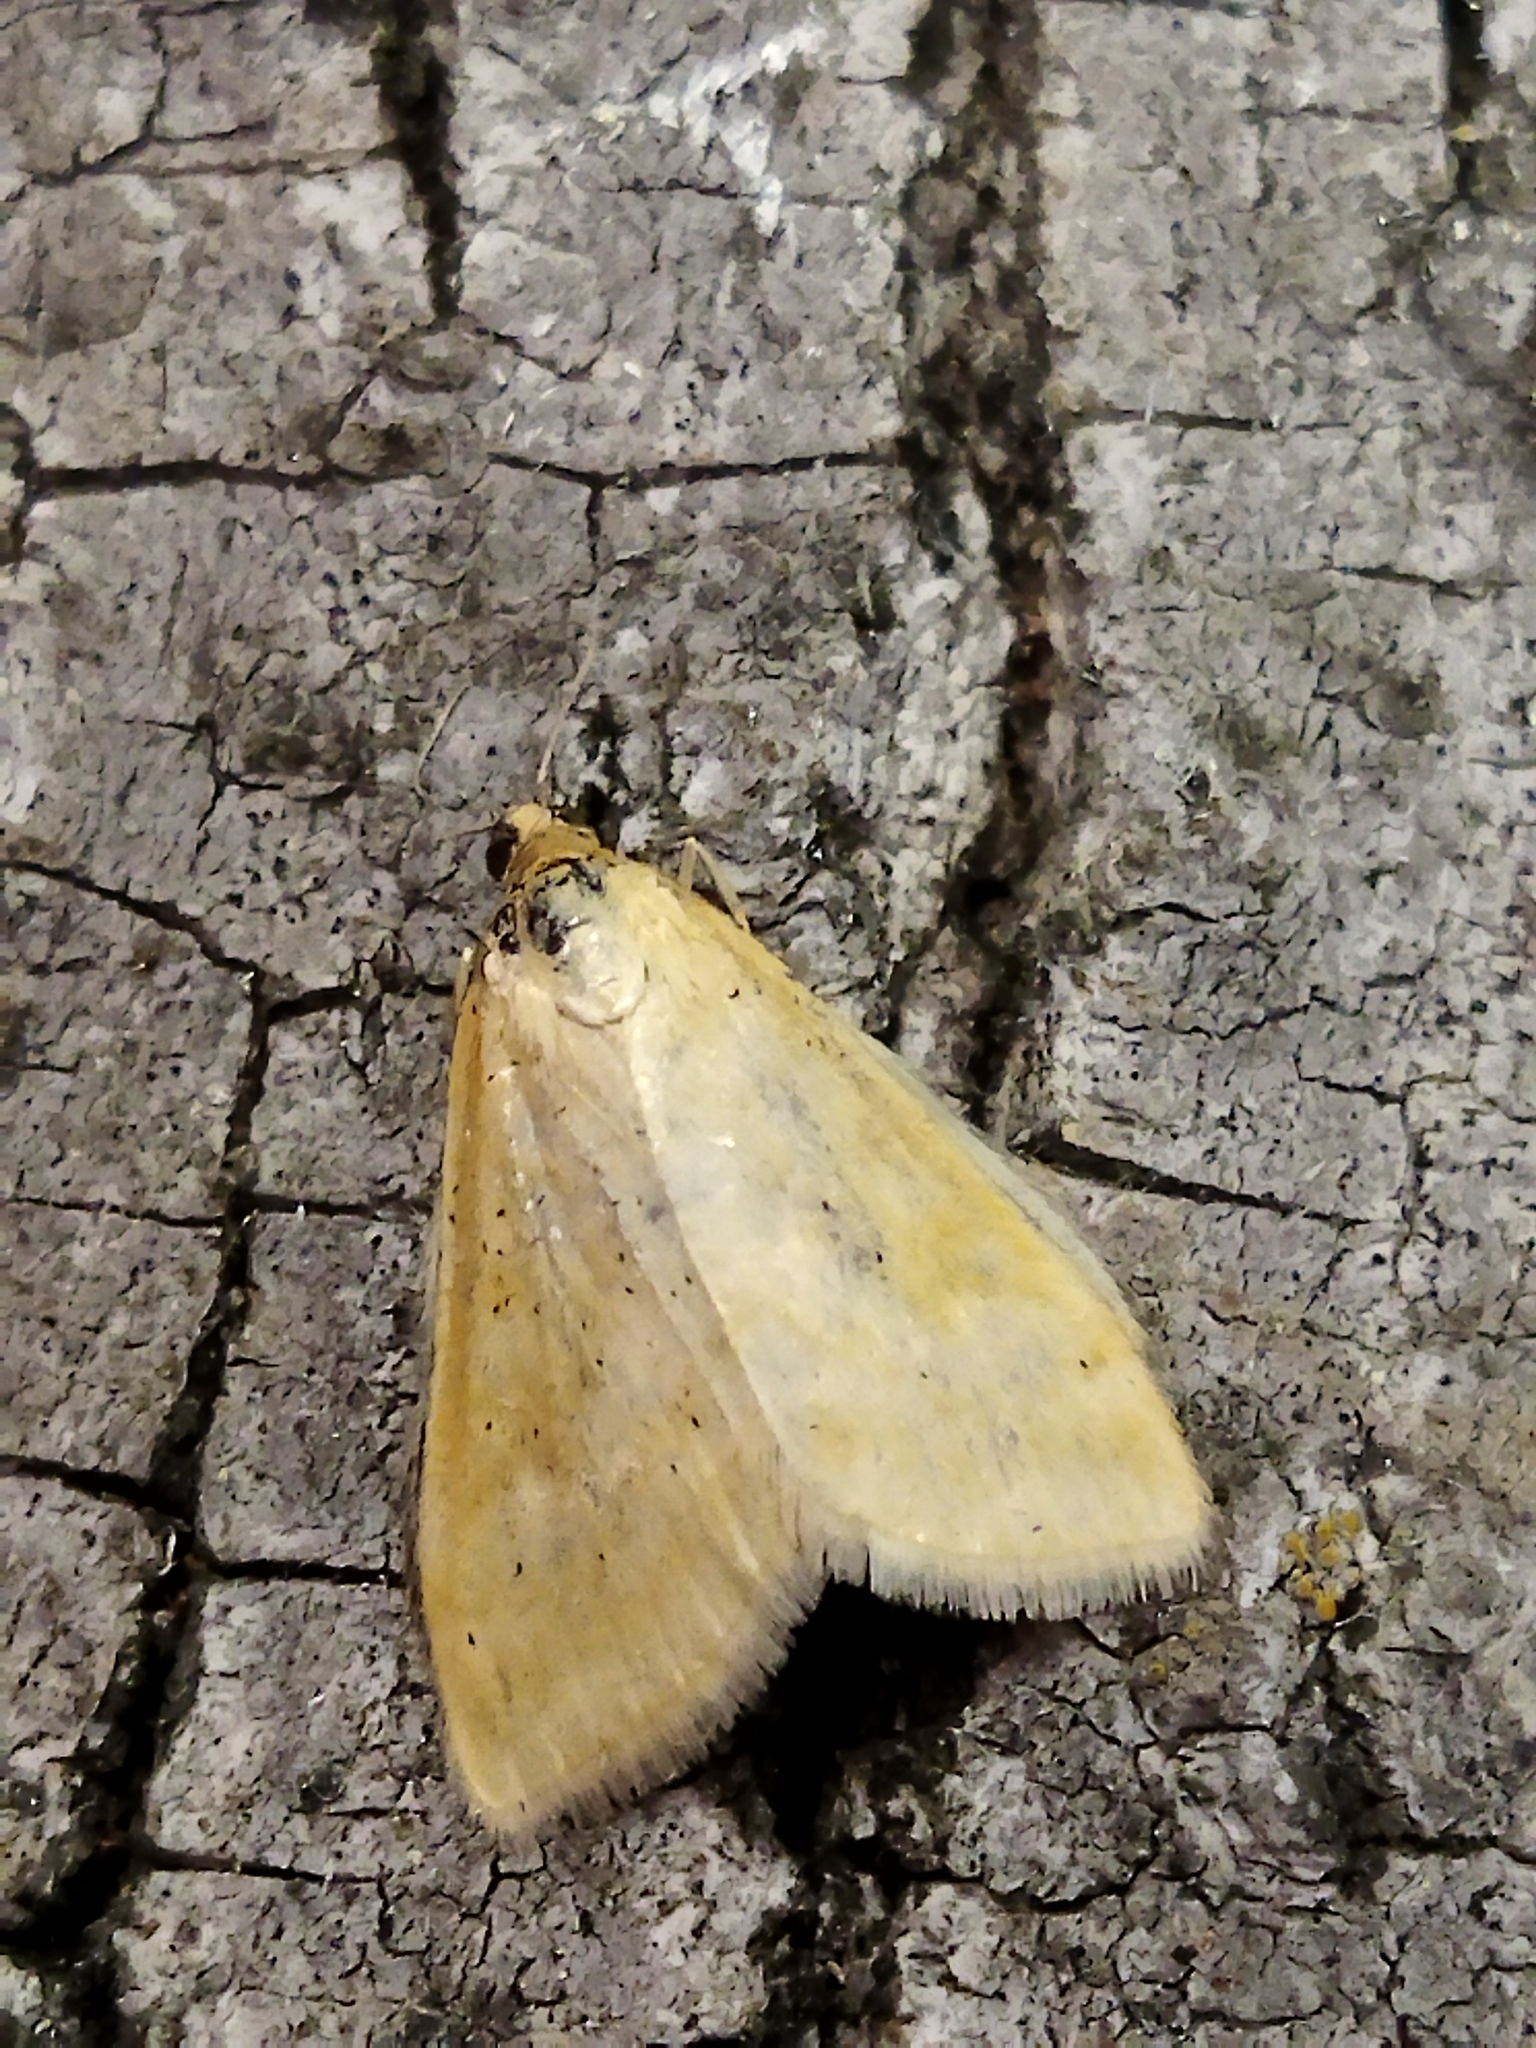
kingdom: Animalia
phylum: Arthropoda
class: Insecta
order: Lepidoptera
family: Crambidae
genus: Sitochroa
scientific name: Sitochroa verticalis
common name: Lesser pearl
